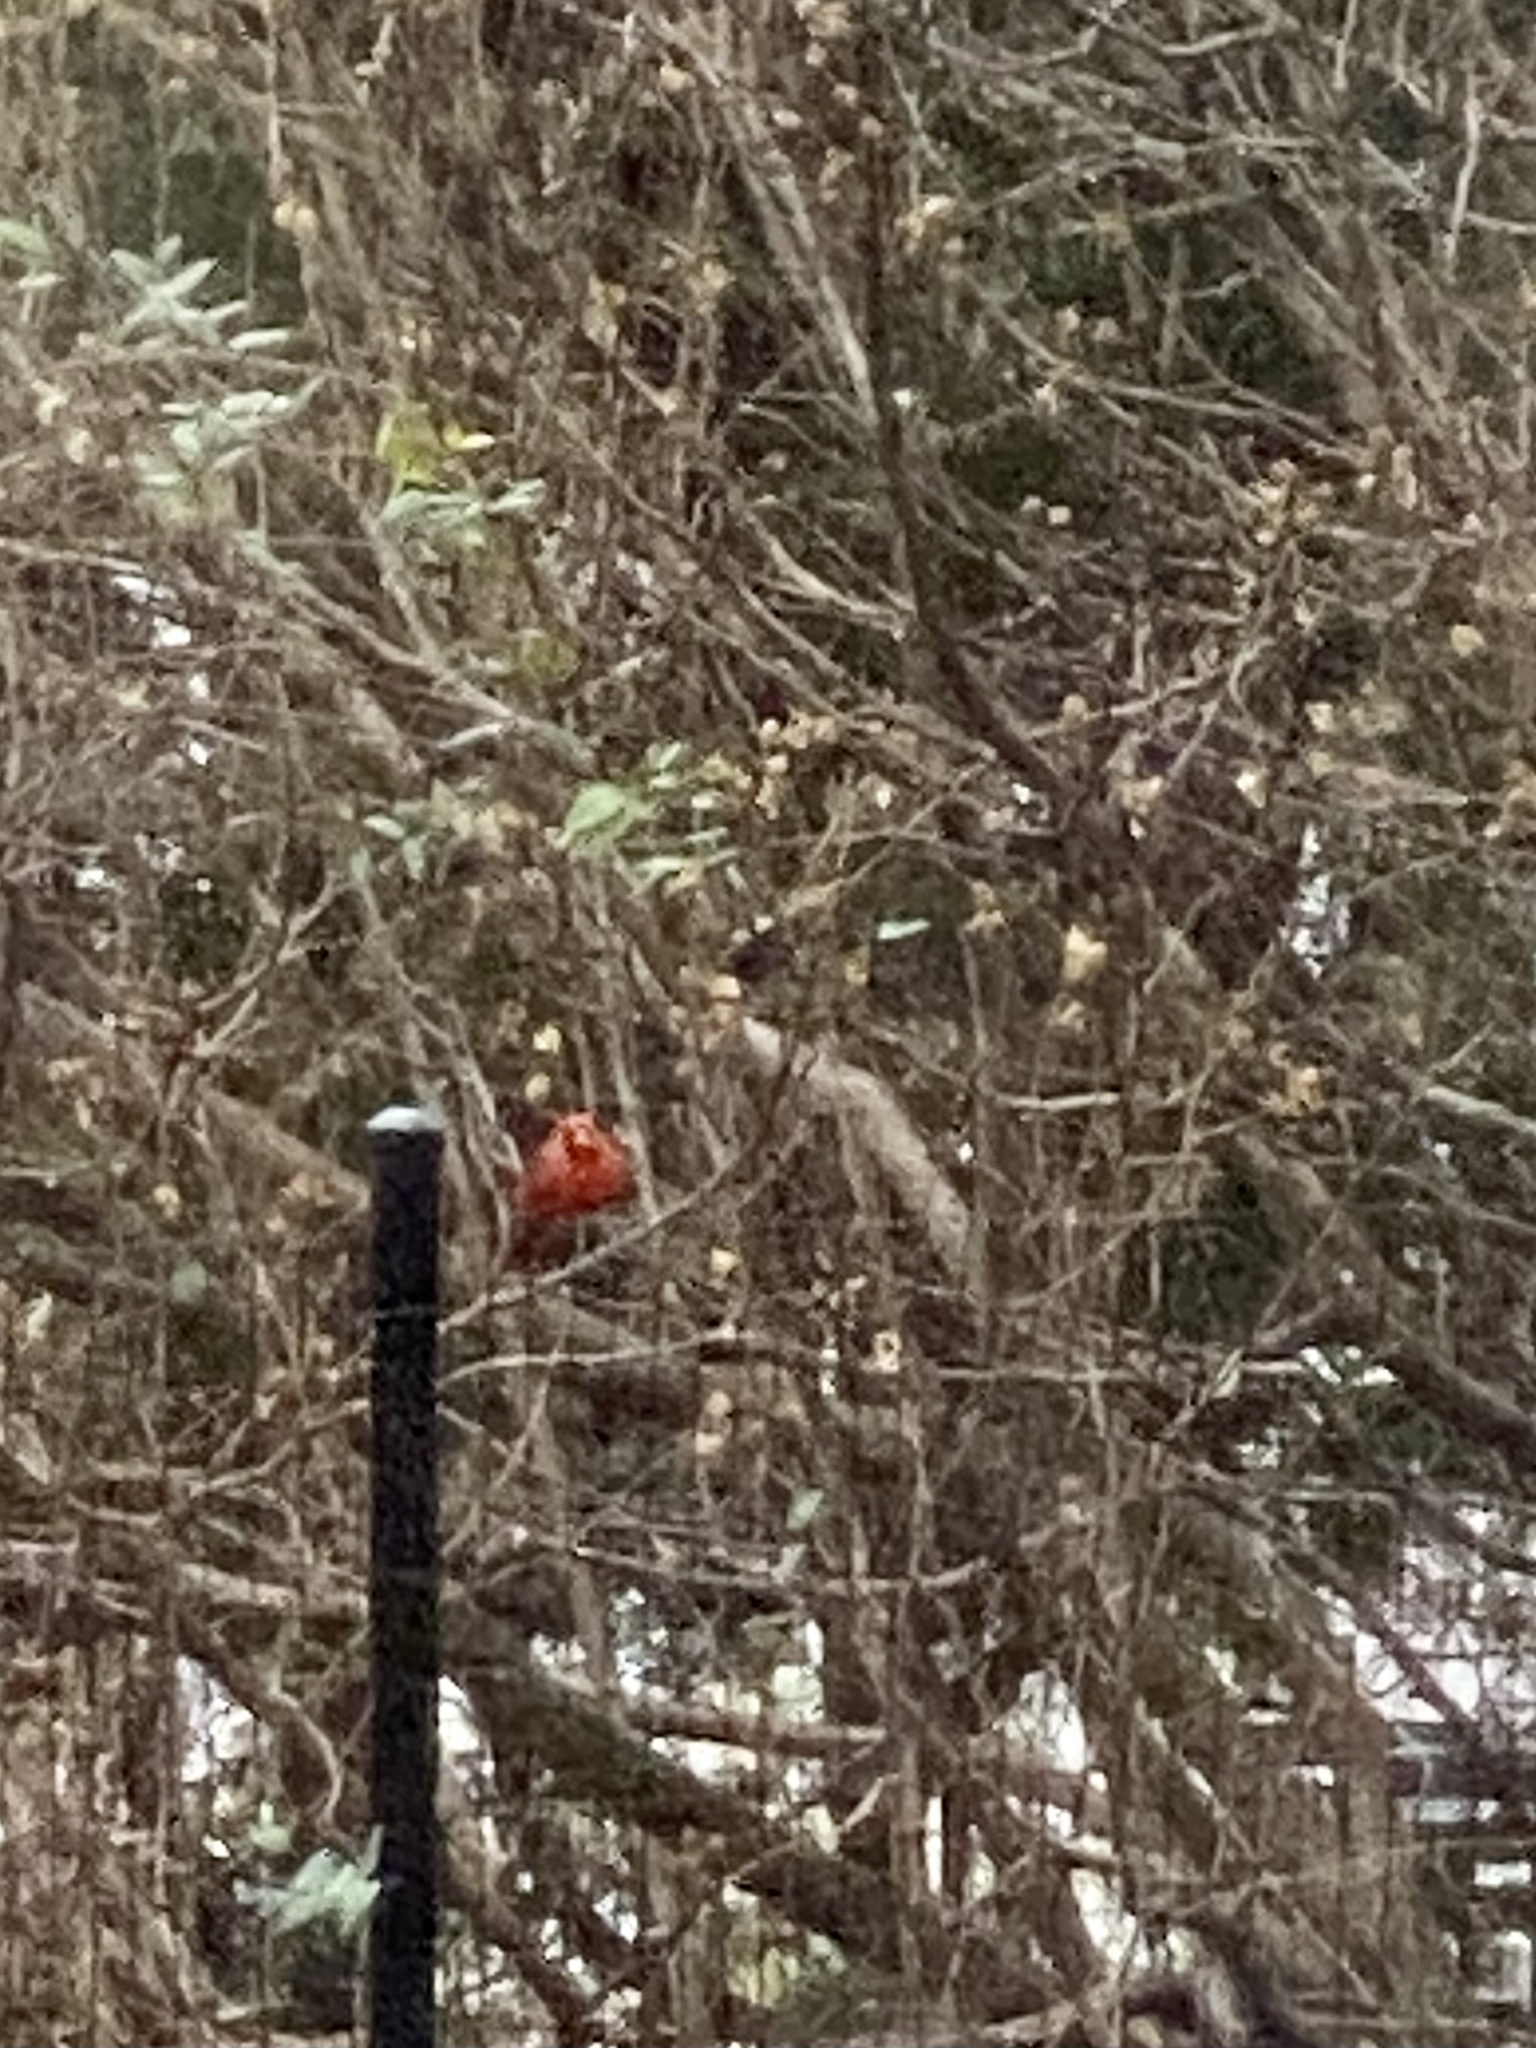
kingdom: Animalia
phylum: Chordata
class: Aves
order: Passeriformes
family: Cardinalidae
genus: Cardinalis
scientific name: Cardinalis cardinalis
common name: Northern cardinal
